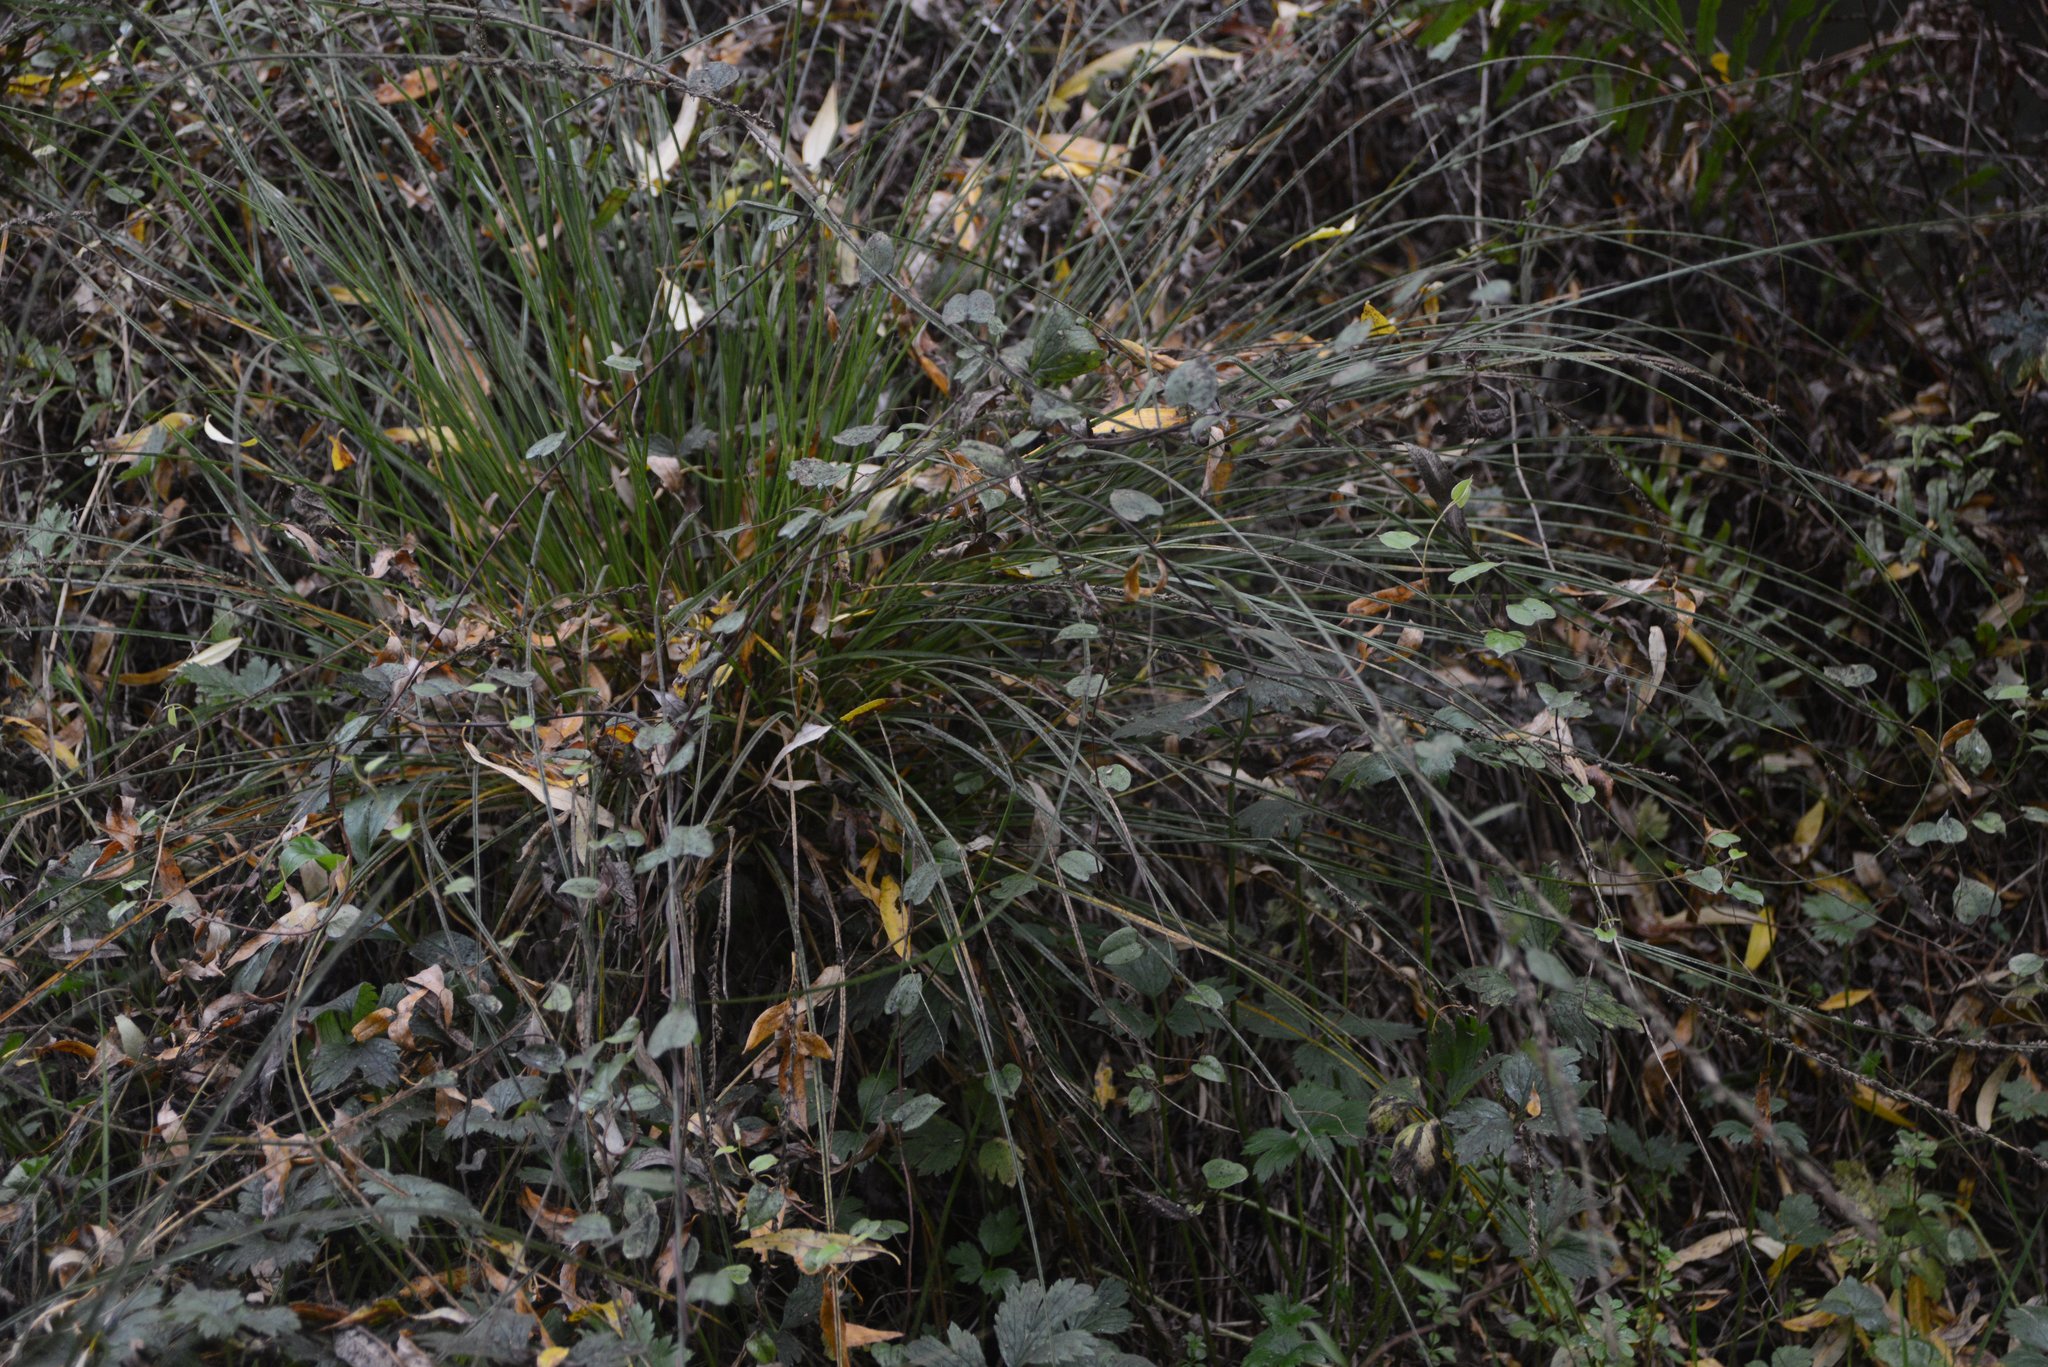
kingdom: Plantae
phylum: Tracheophyta
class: Magnoliopsida
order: Caryophyllales
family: Polygonaceae
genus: Muehlenbeckia
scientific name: Muehlenbeckia australis
